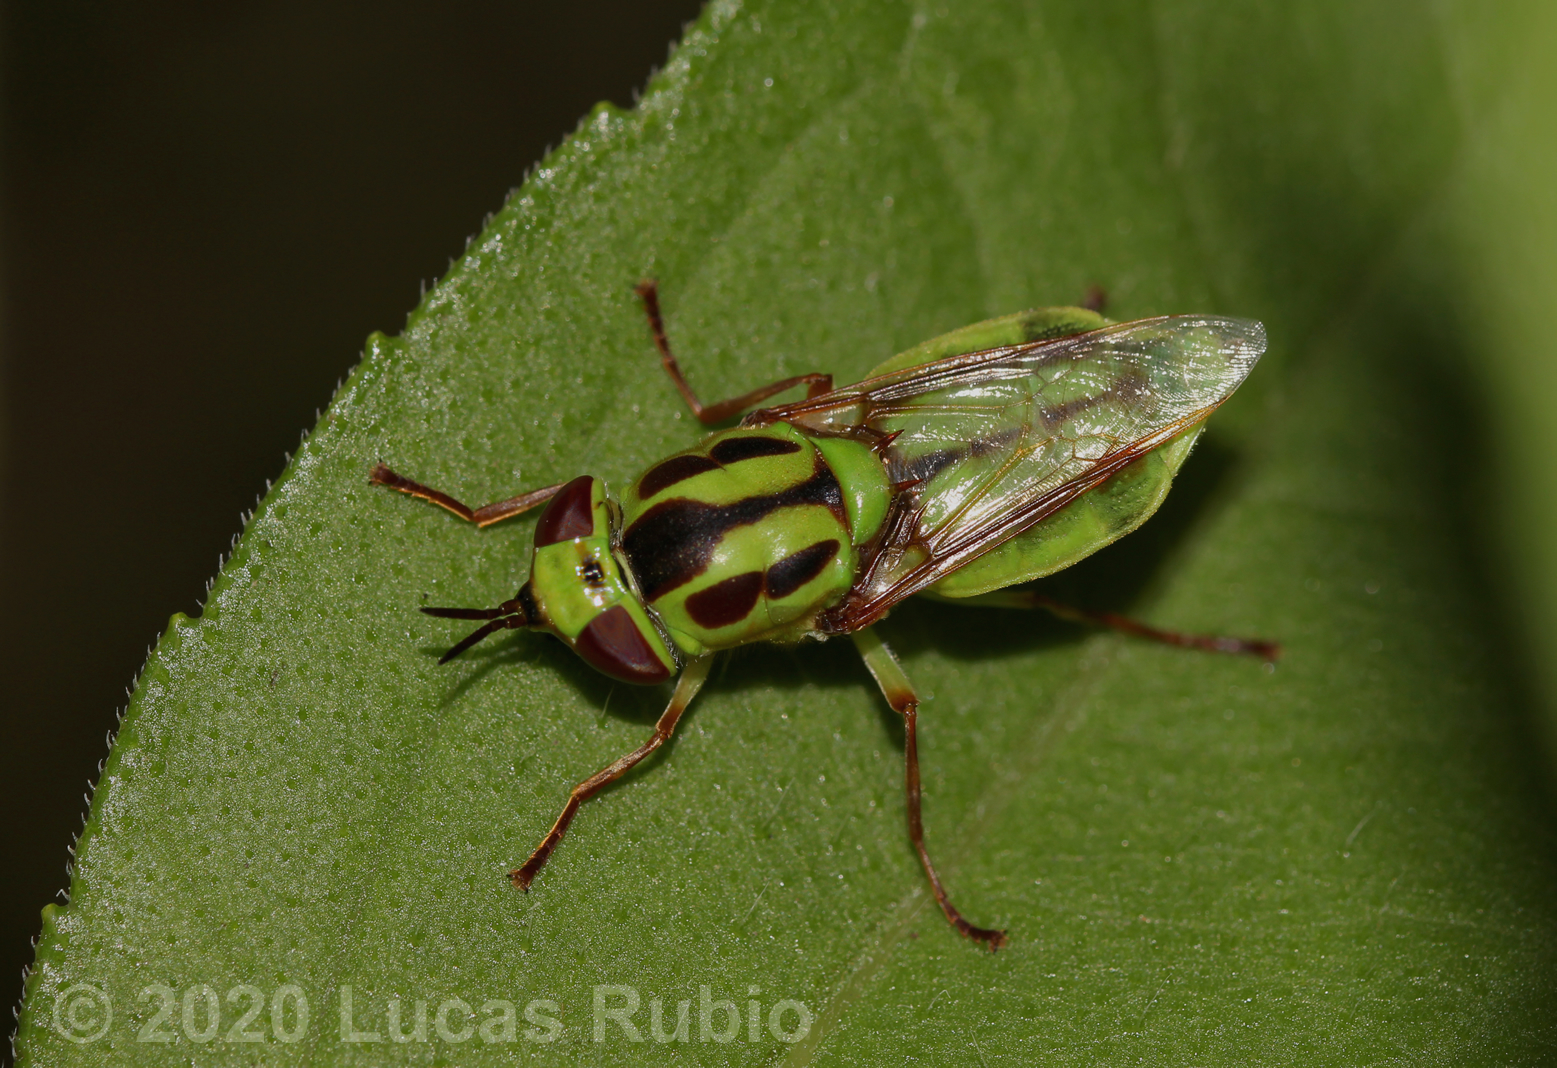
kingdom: Animalia
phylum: Arthropoda
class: Insecta
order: Diptera
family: Stratiomyidae
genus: Hedriodiscus
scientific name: Hedriodiscus pulcher
